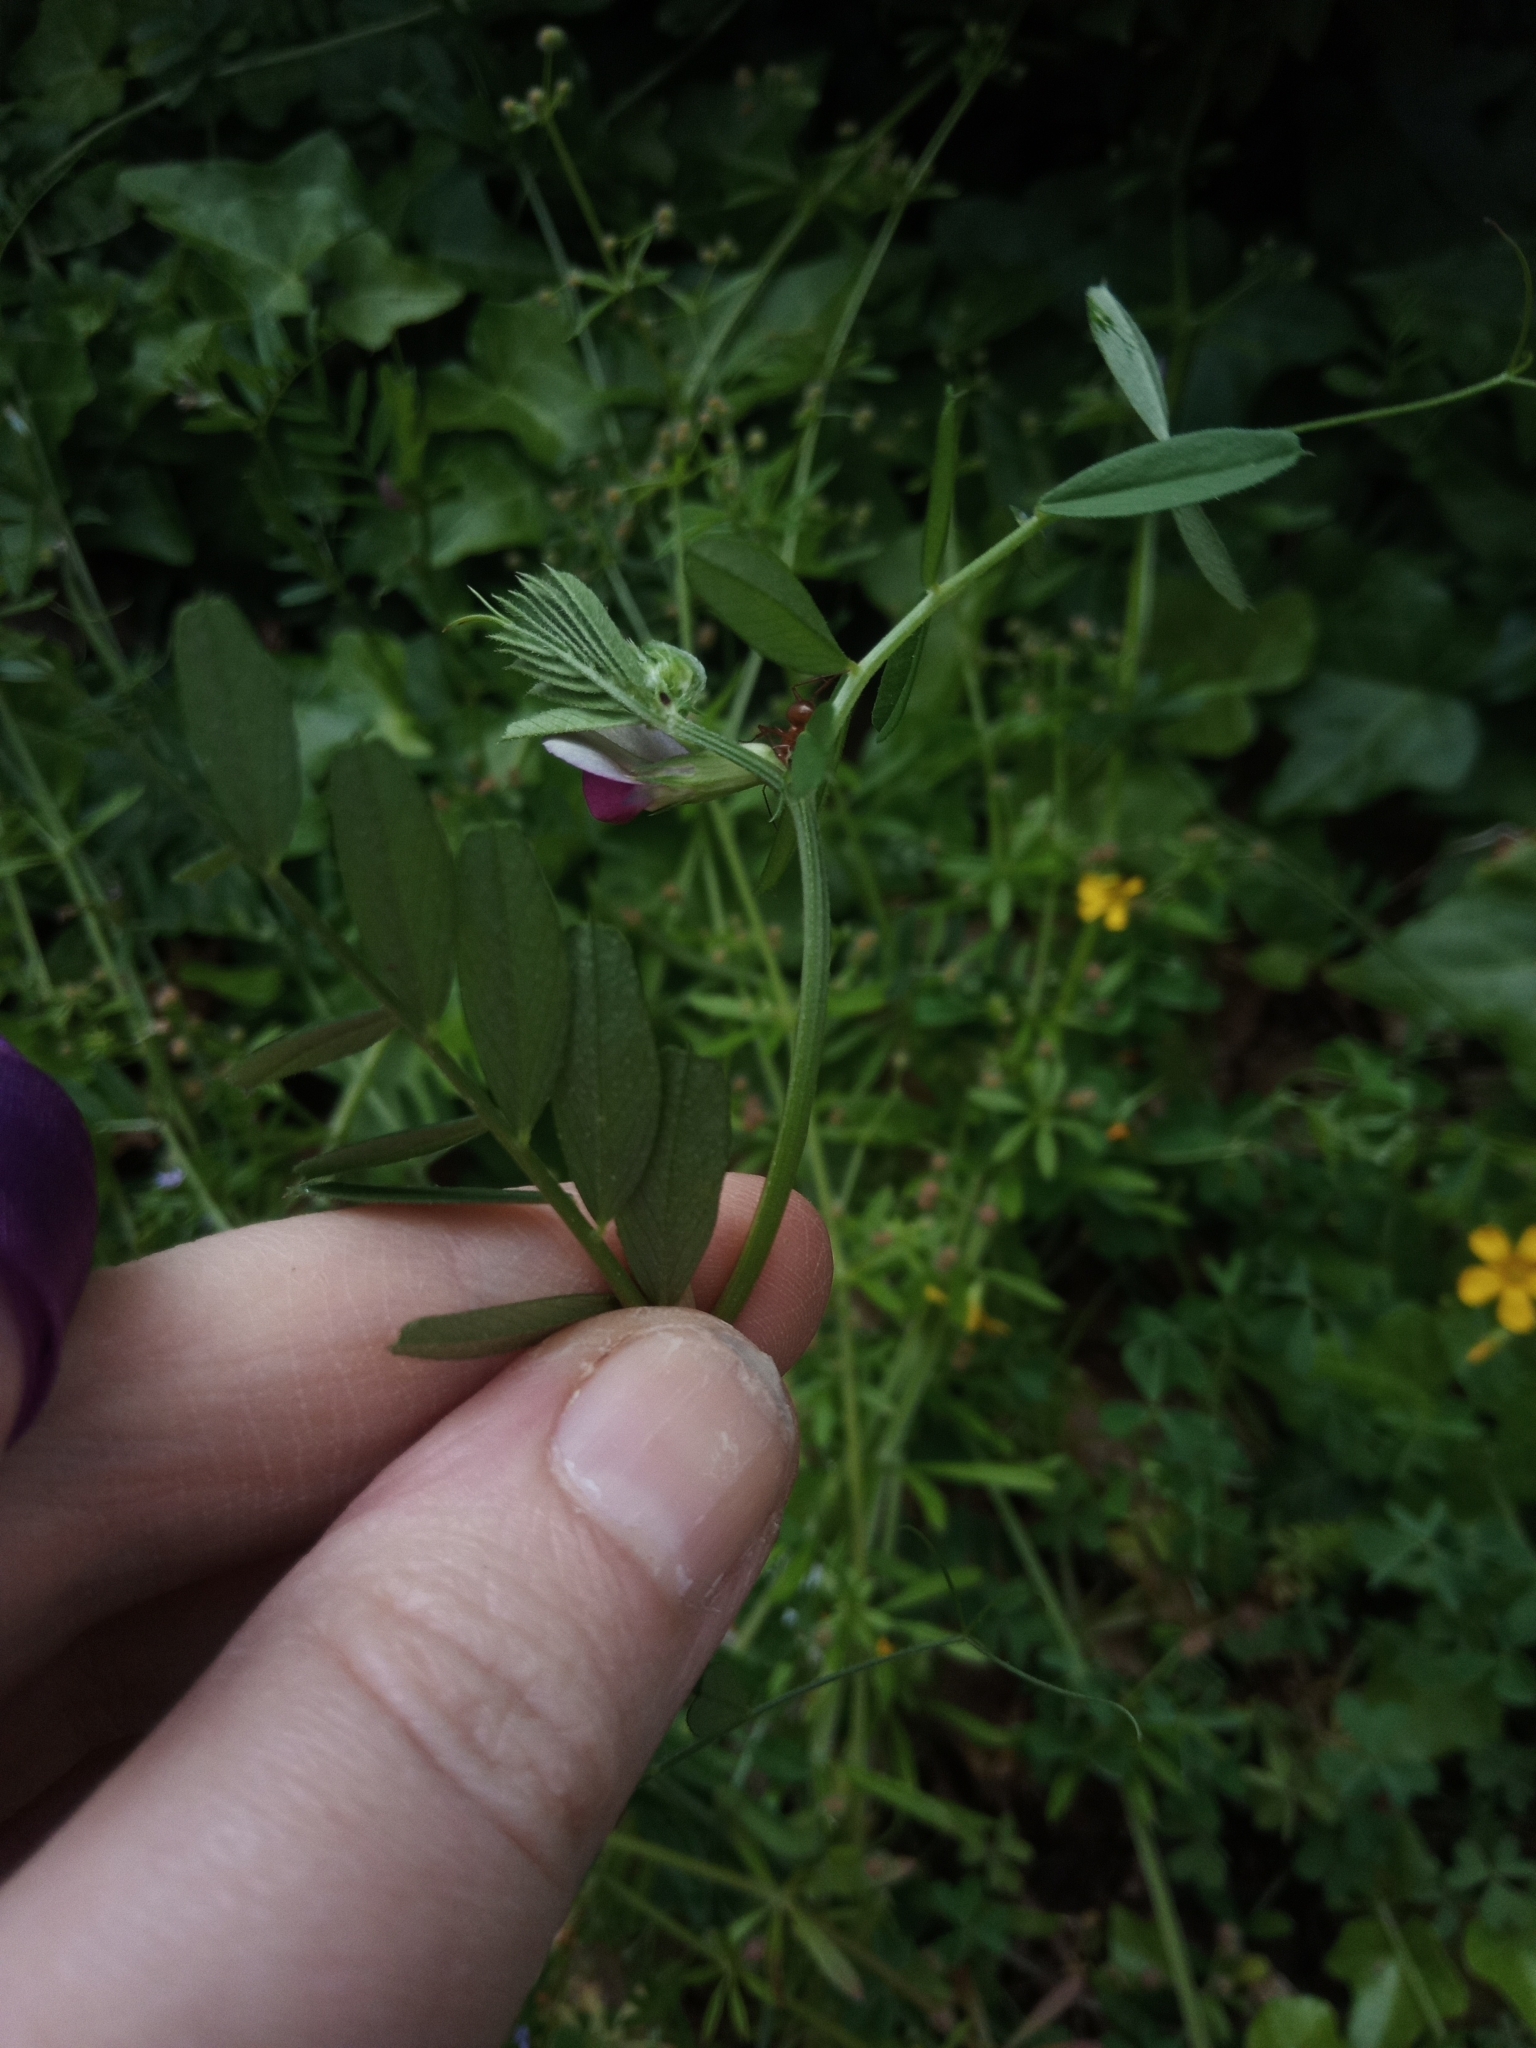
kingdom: Plantae
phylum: Tracheophyta
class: Magnoliopsida
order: Fabales
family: Fabaceae
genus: Vicia
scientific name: Vicia sativa
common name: Garden vetch
